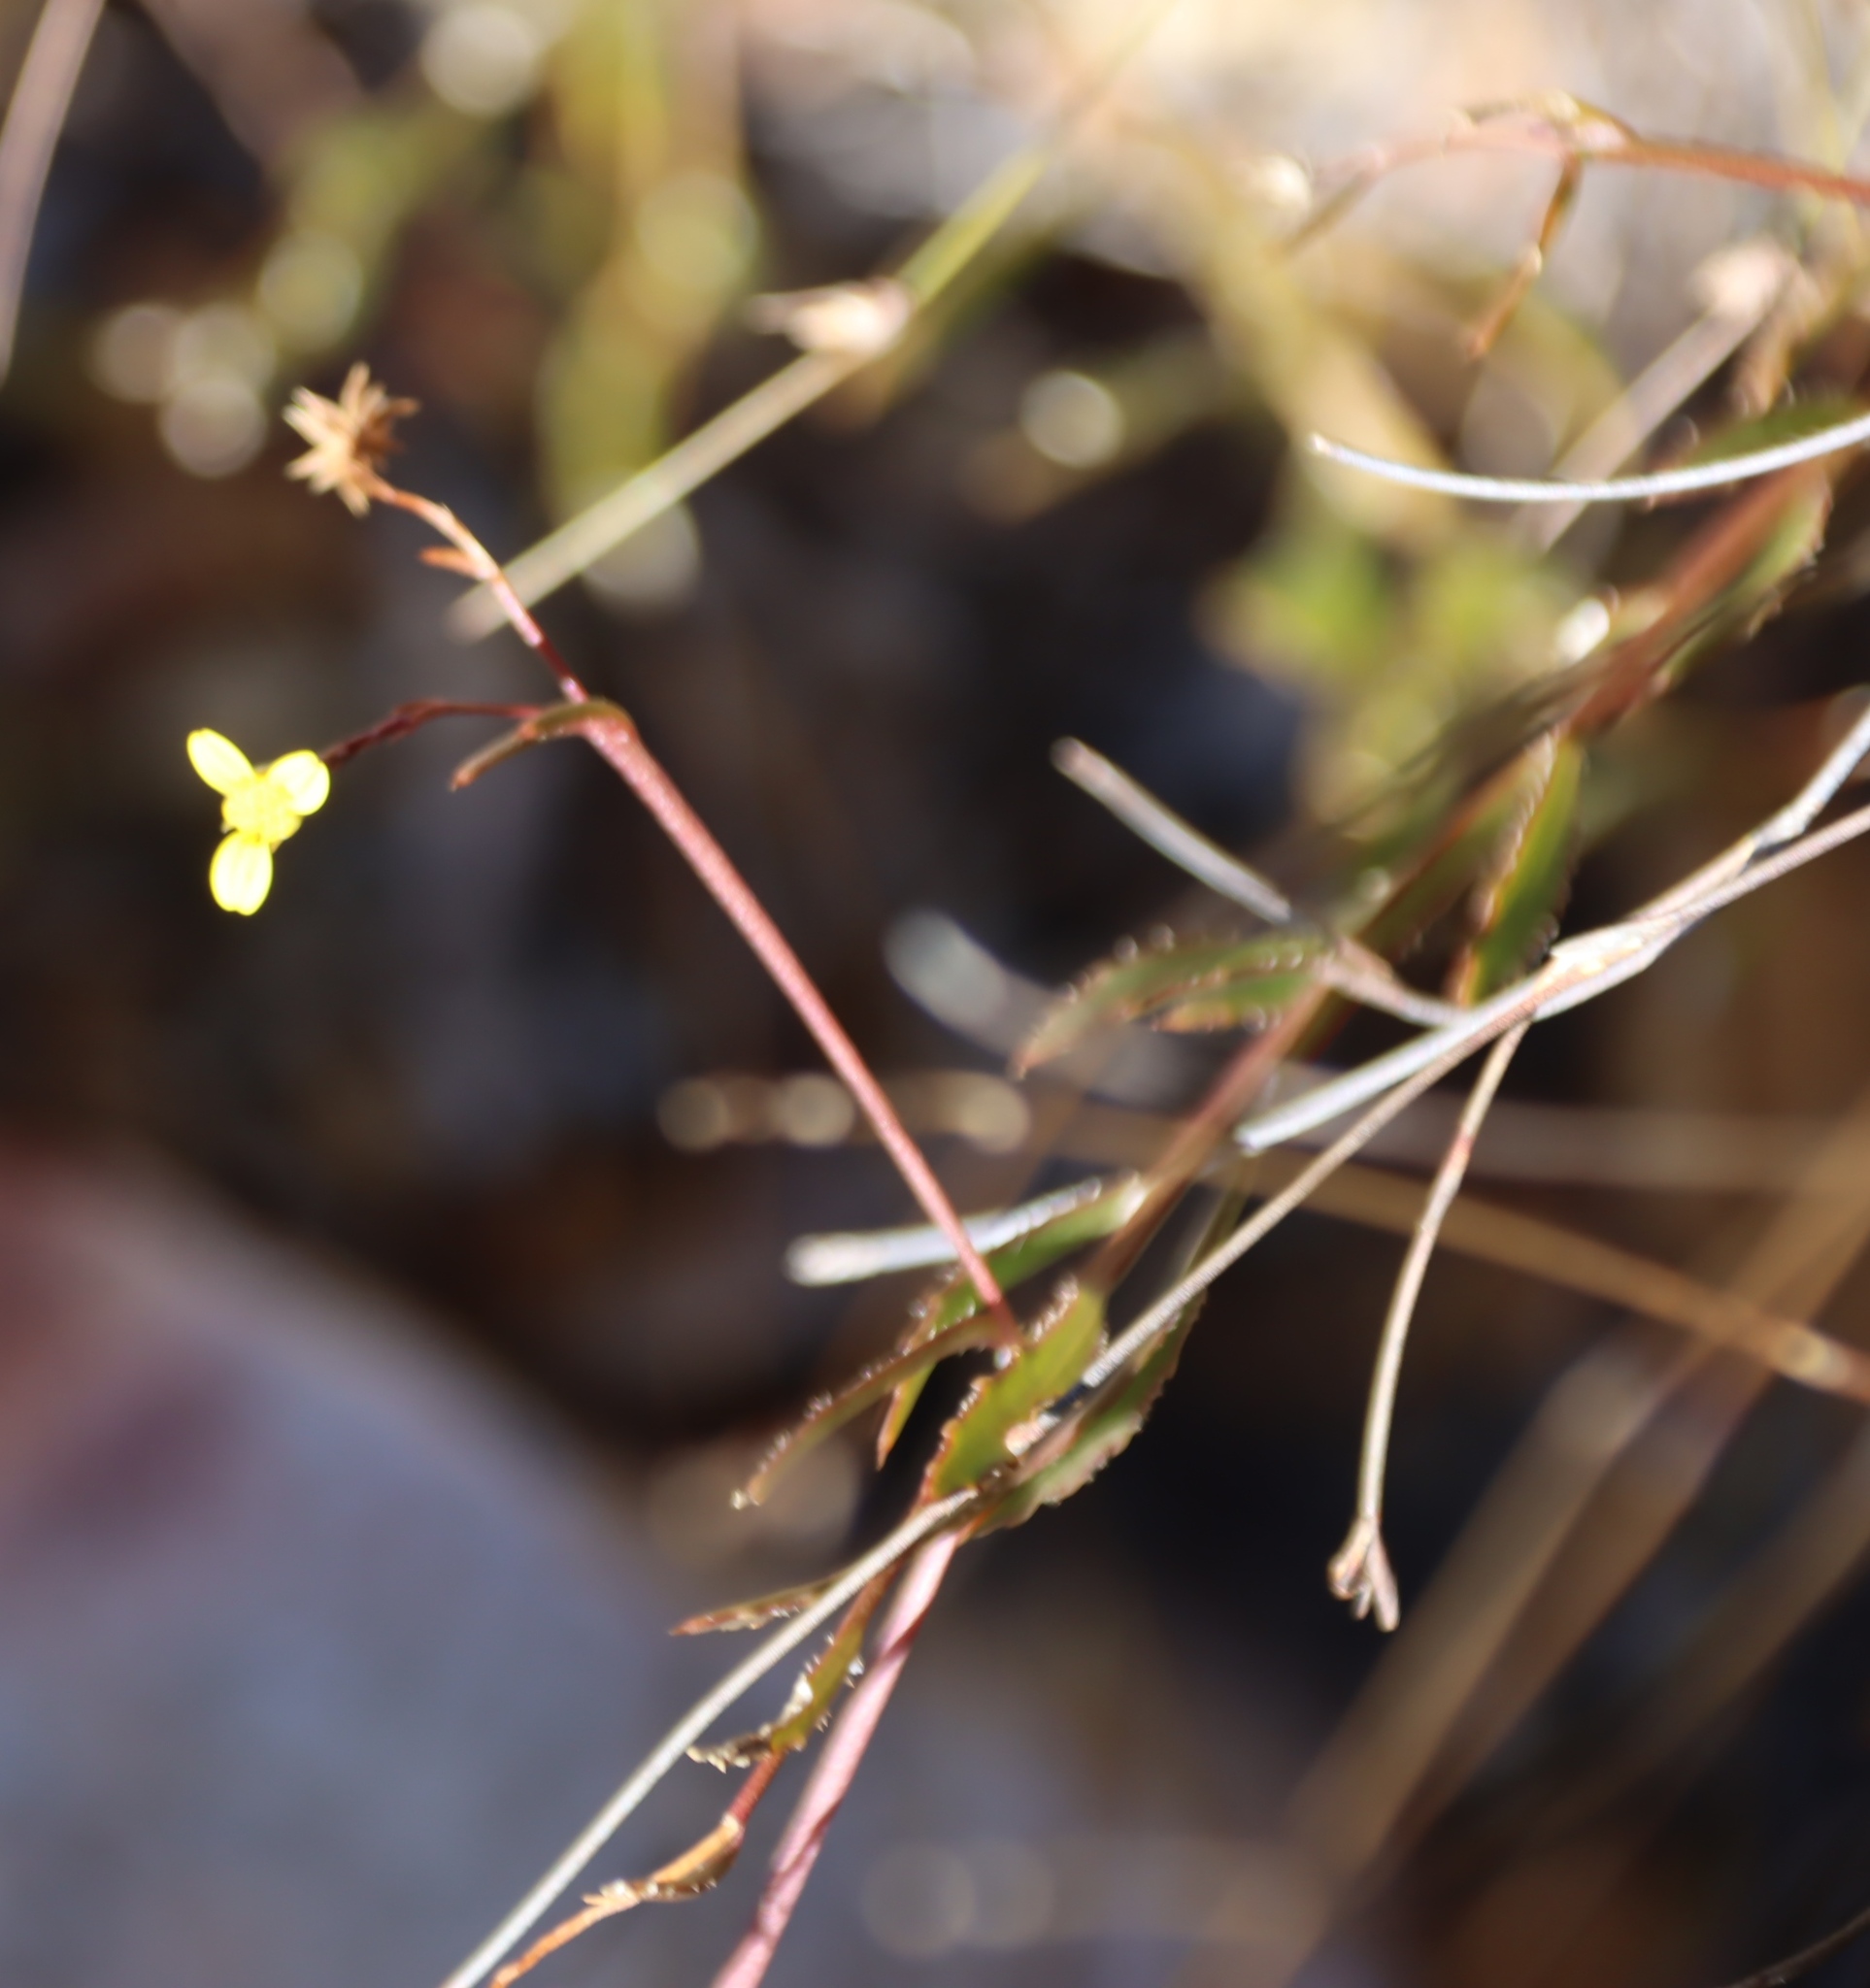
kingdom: Plantae
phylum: Tracheophyta
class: Magnoliopsida
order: Asterales
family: Asteraceae
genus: Osteospermum
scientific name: Osteospermum ciliatum
